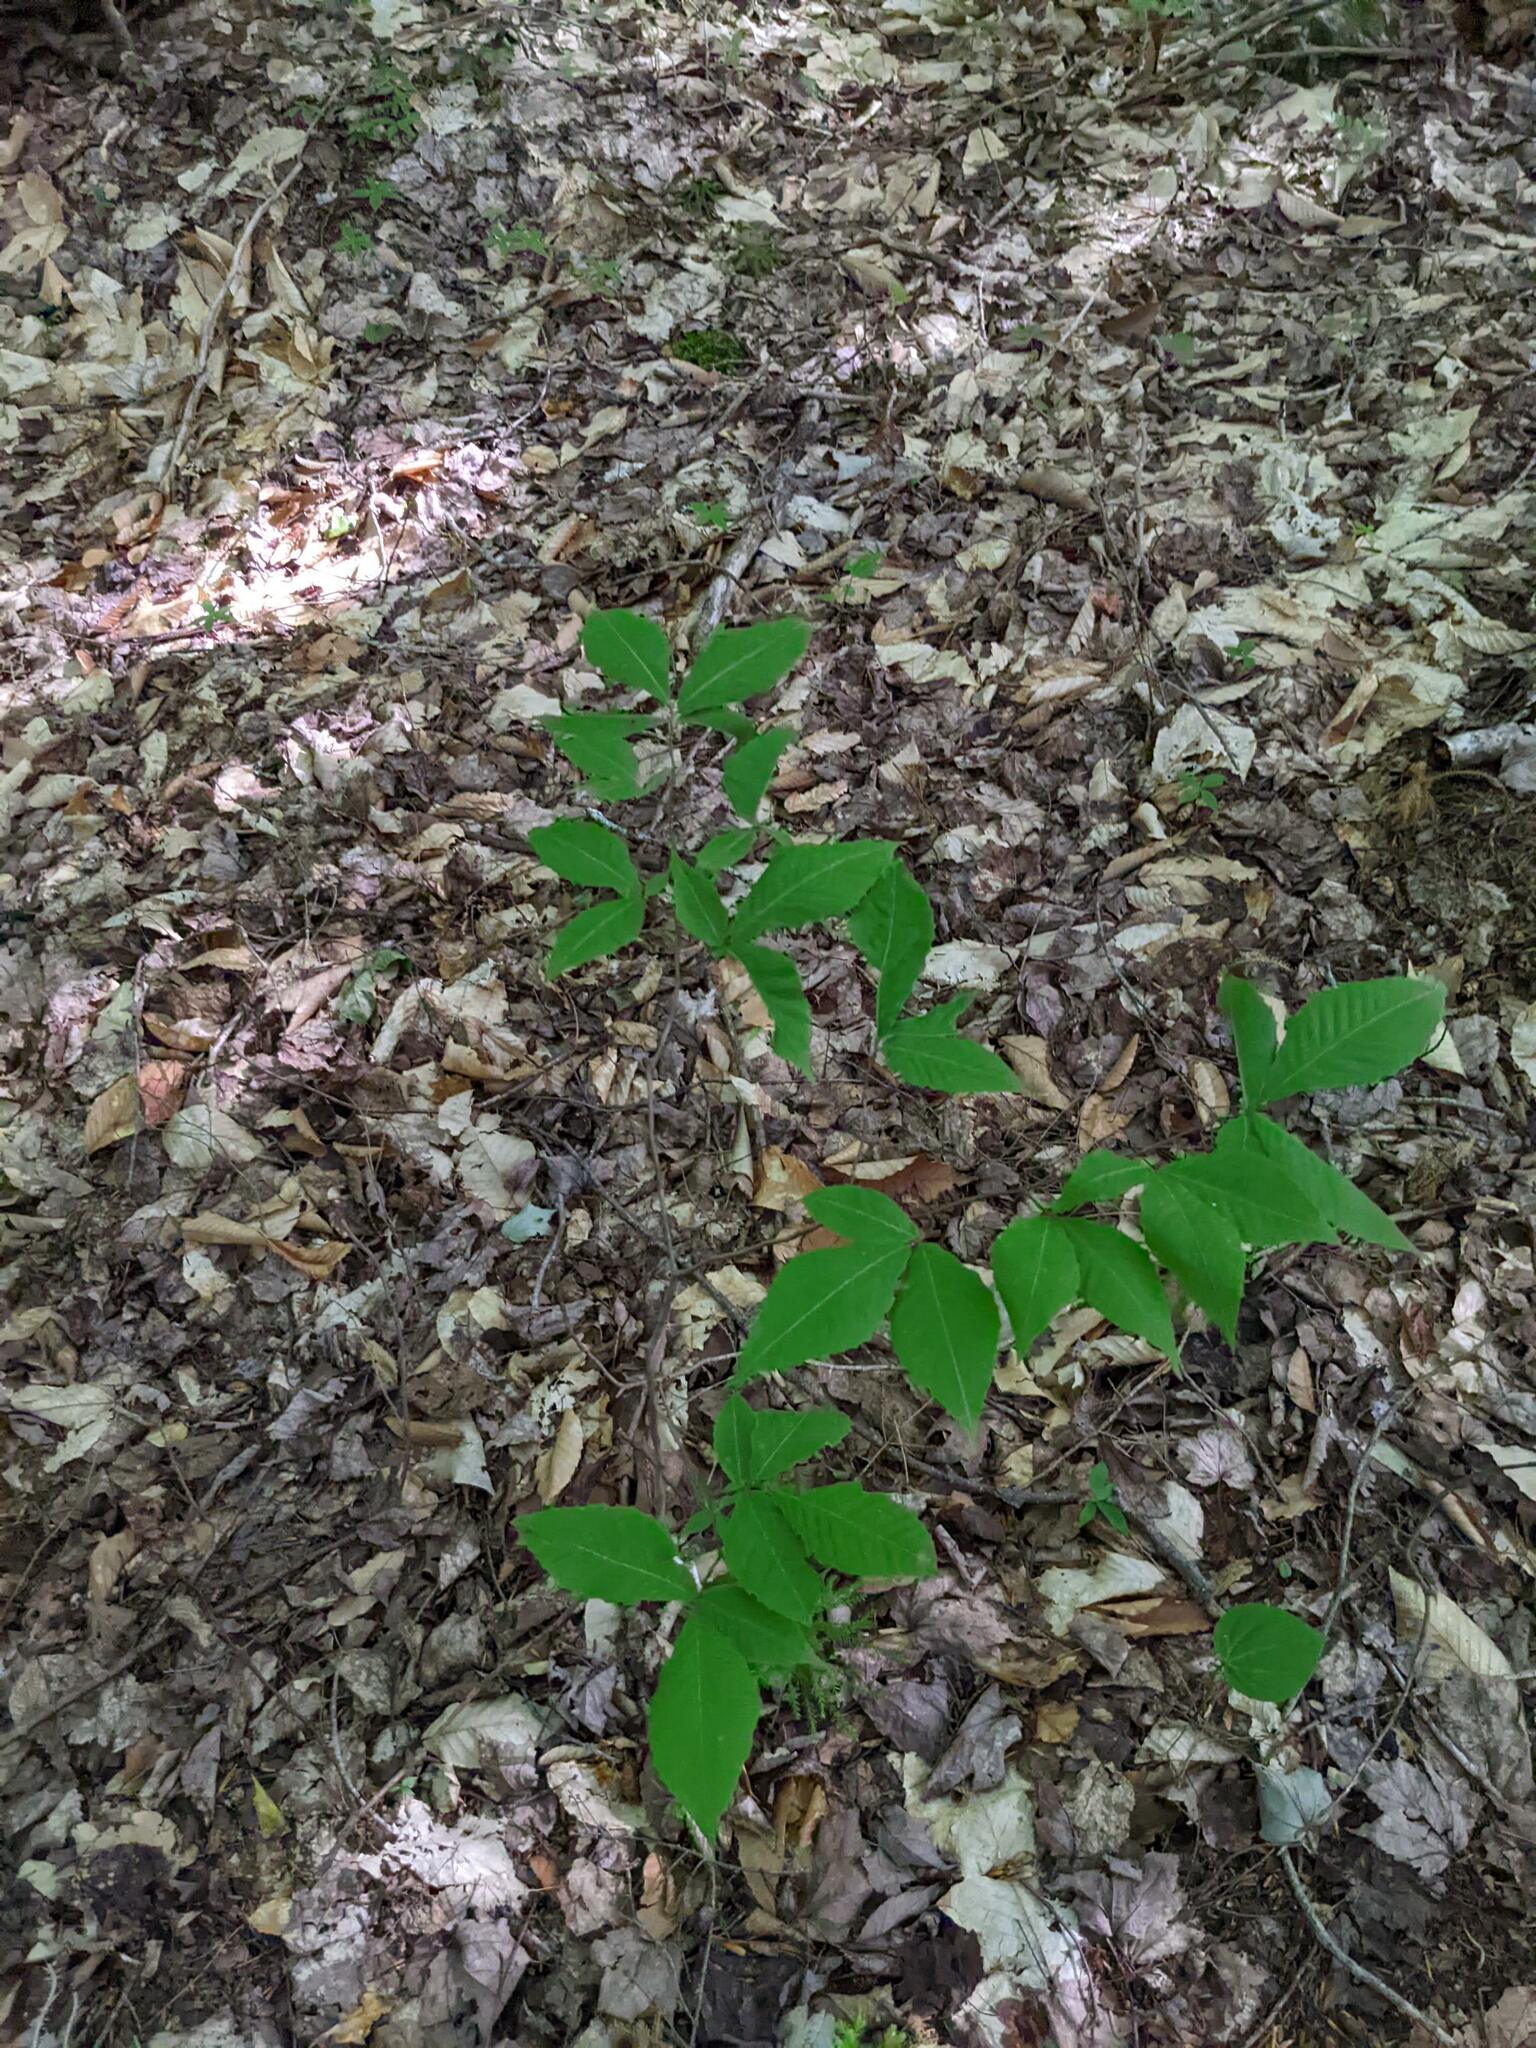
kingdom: Plantae
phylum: Tracheophyta
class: Magnoliopsida
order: Fagales
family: Fagaceae
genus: Fagus
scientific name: Fagus grandifolia
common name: American beech
